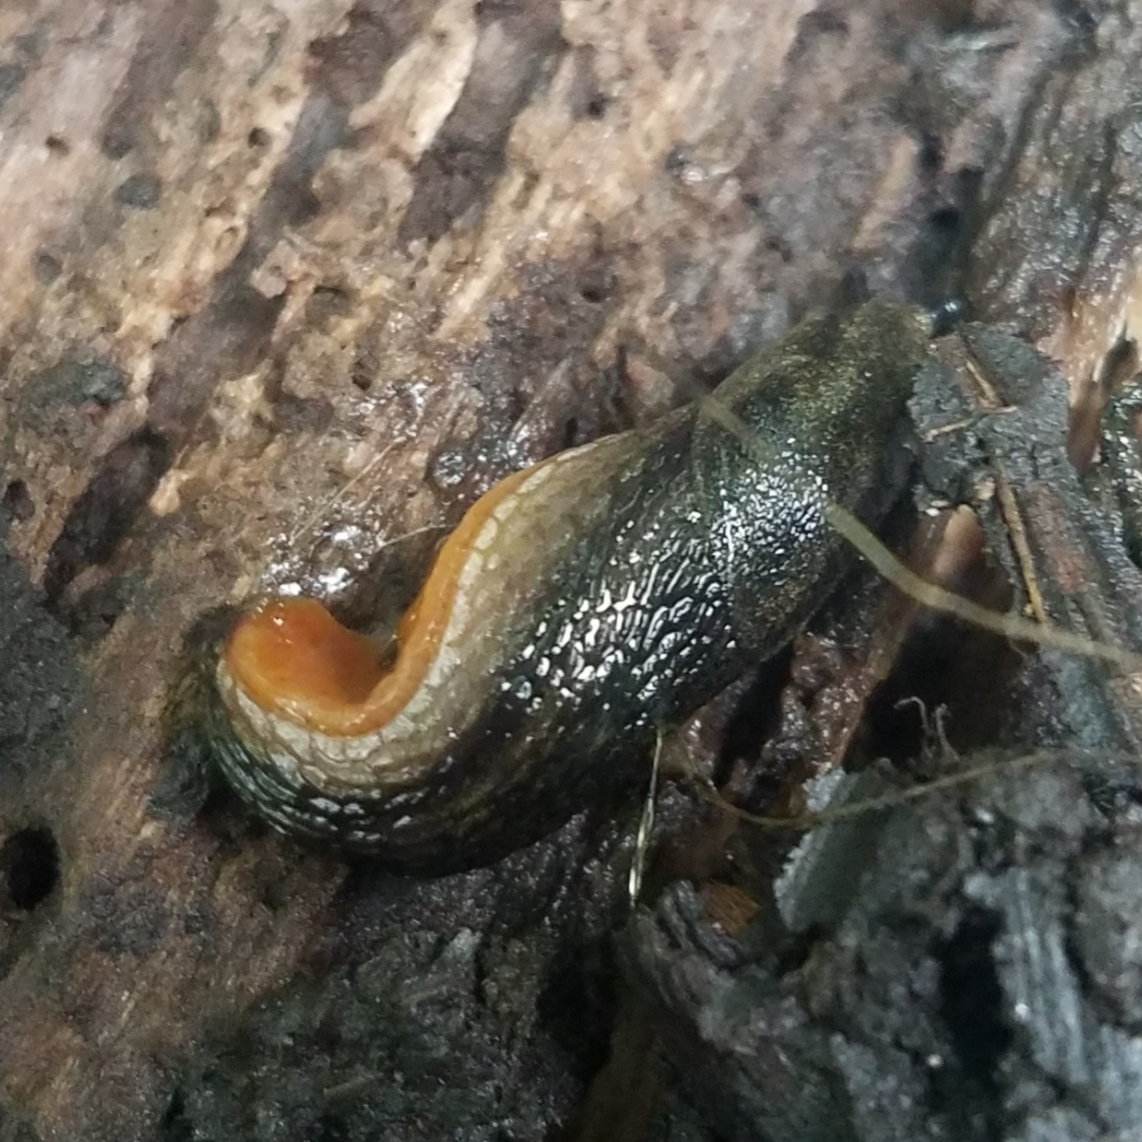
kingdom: Animalia
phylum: Mollusca
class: Gastropoda
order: Stylommatophora
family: Arionidae
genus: Arion
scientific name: Arion hortensis
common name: Garden arion
